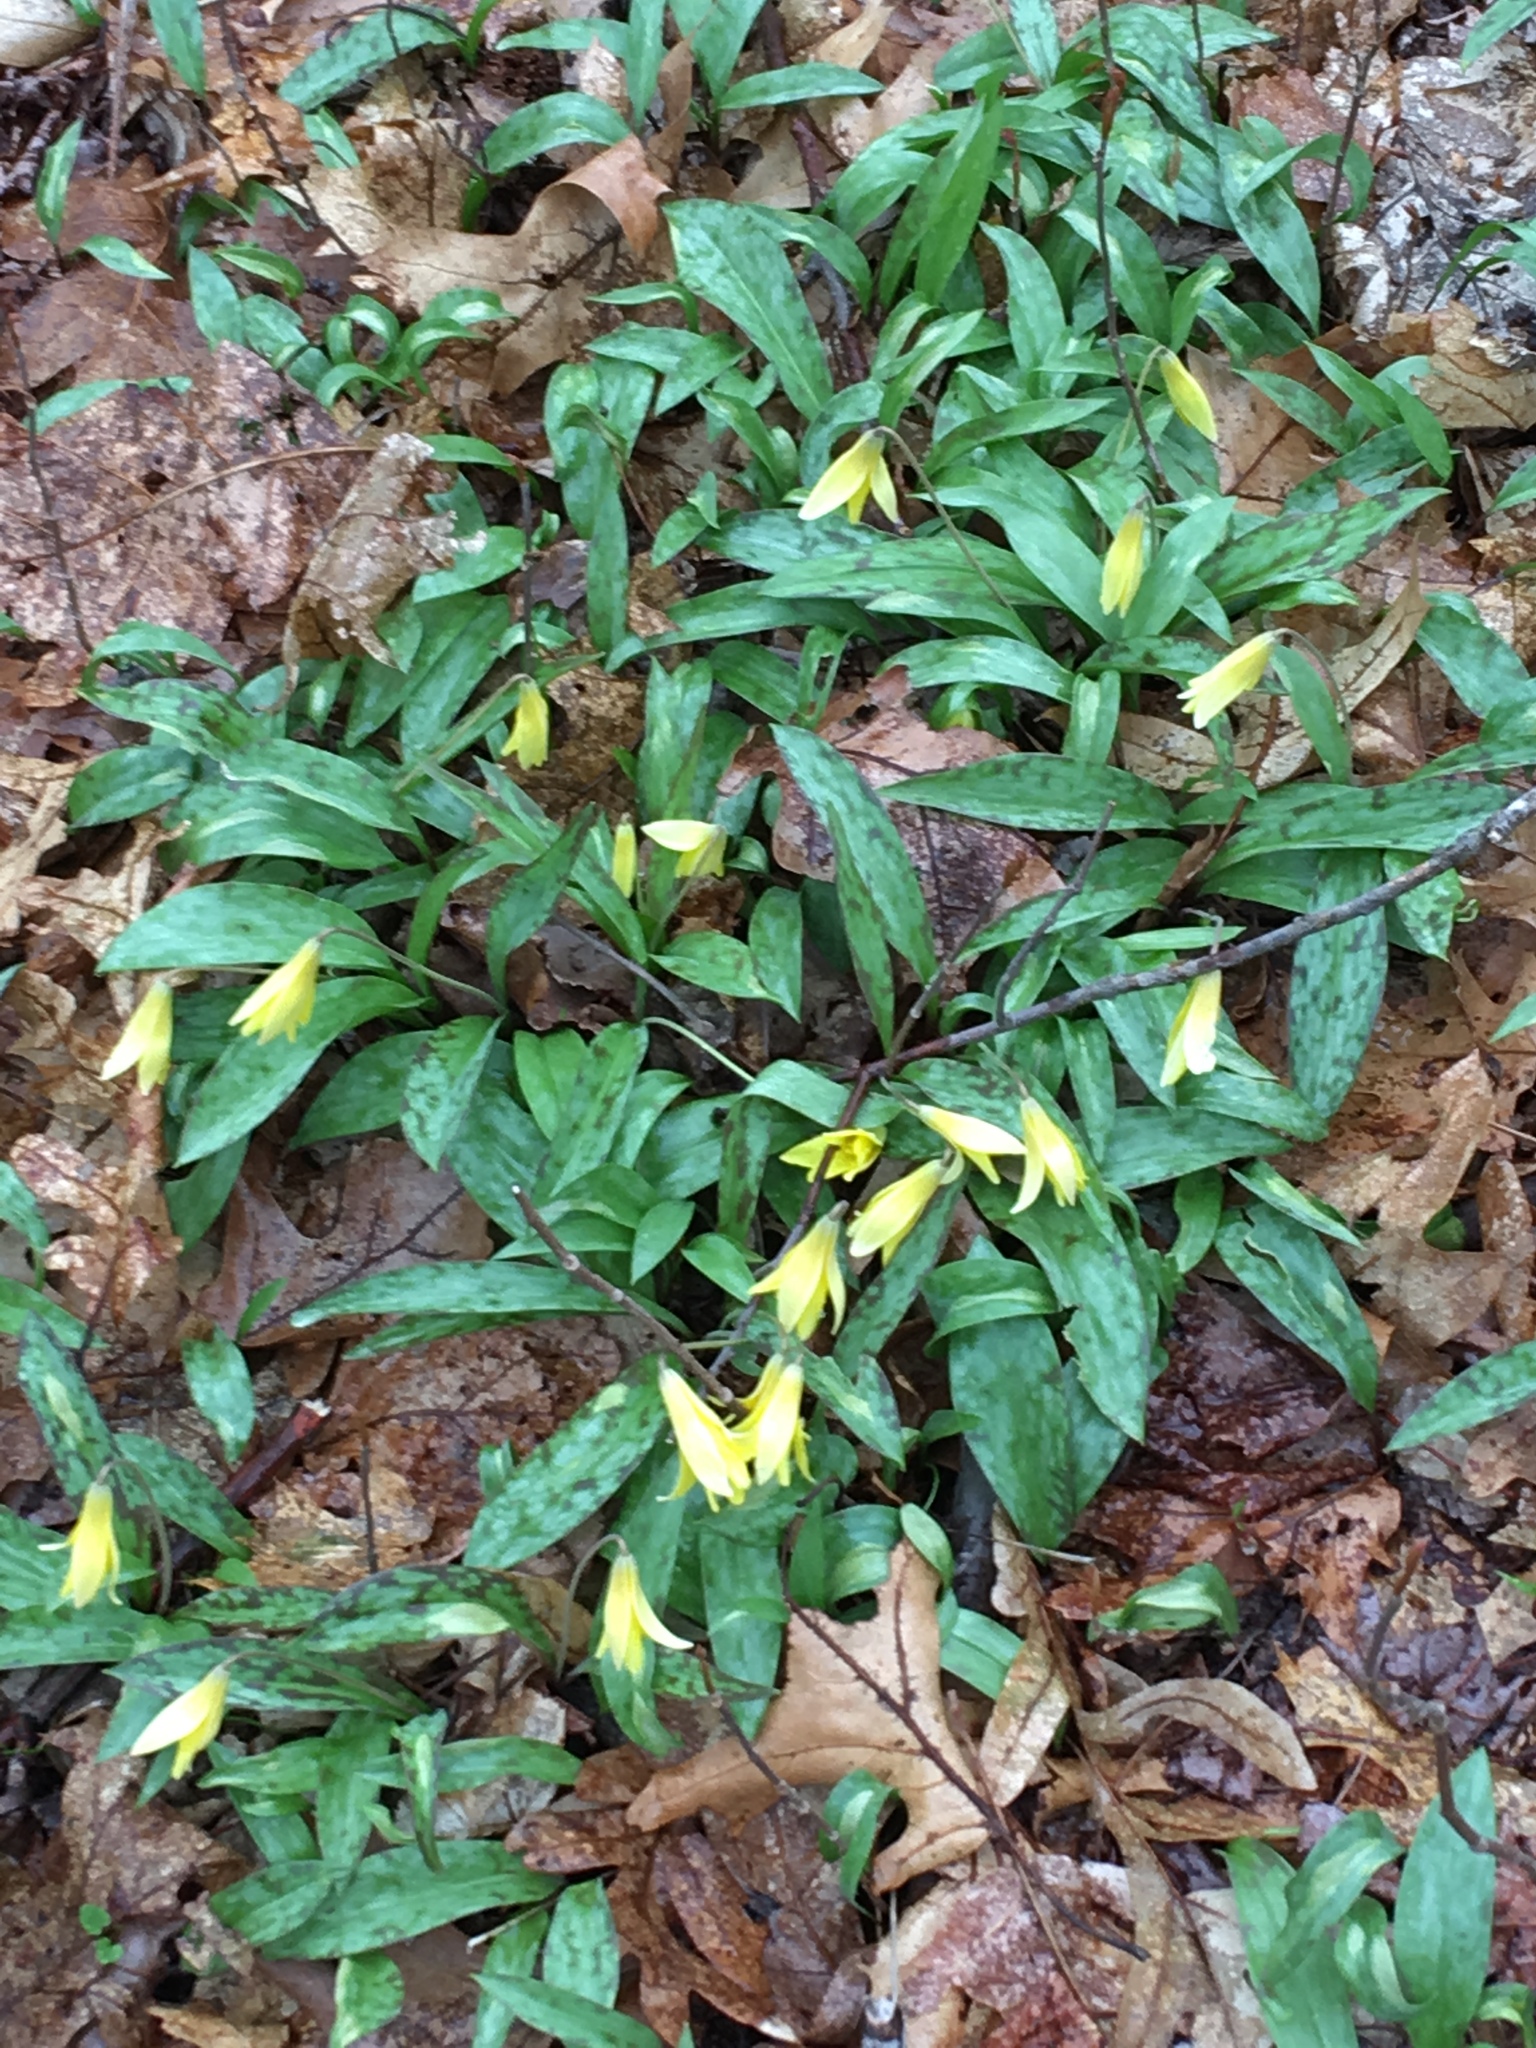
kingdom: Plantae
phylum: Tracheophyta
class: Liliopsida
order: Liliales
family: Liliaceae
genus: Erythronium
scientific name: Erythronium americanum
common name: Yellow adder's-tongue
